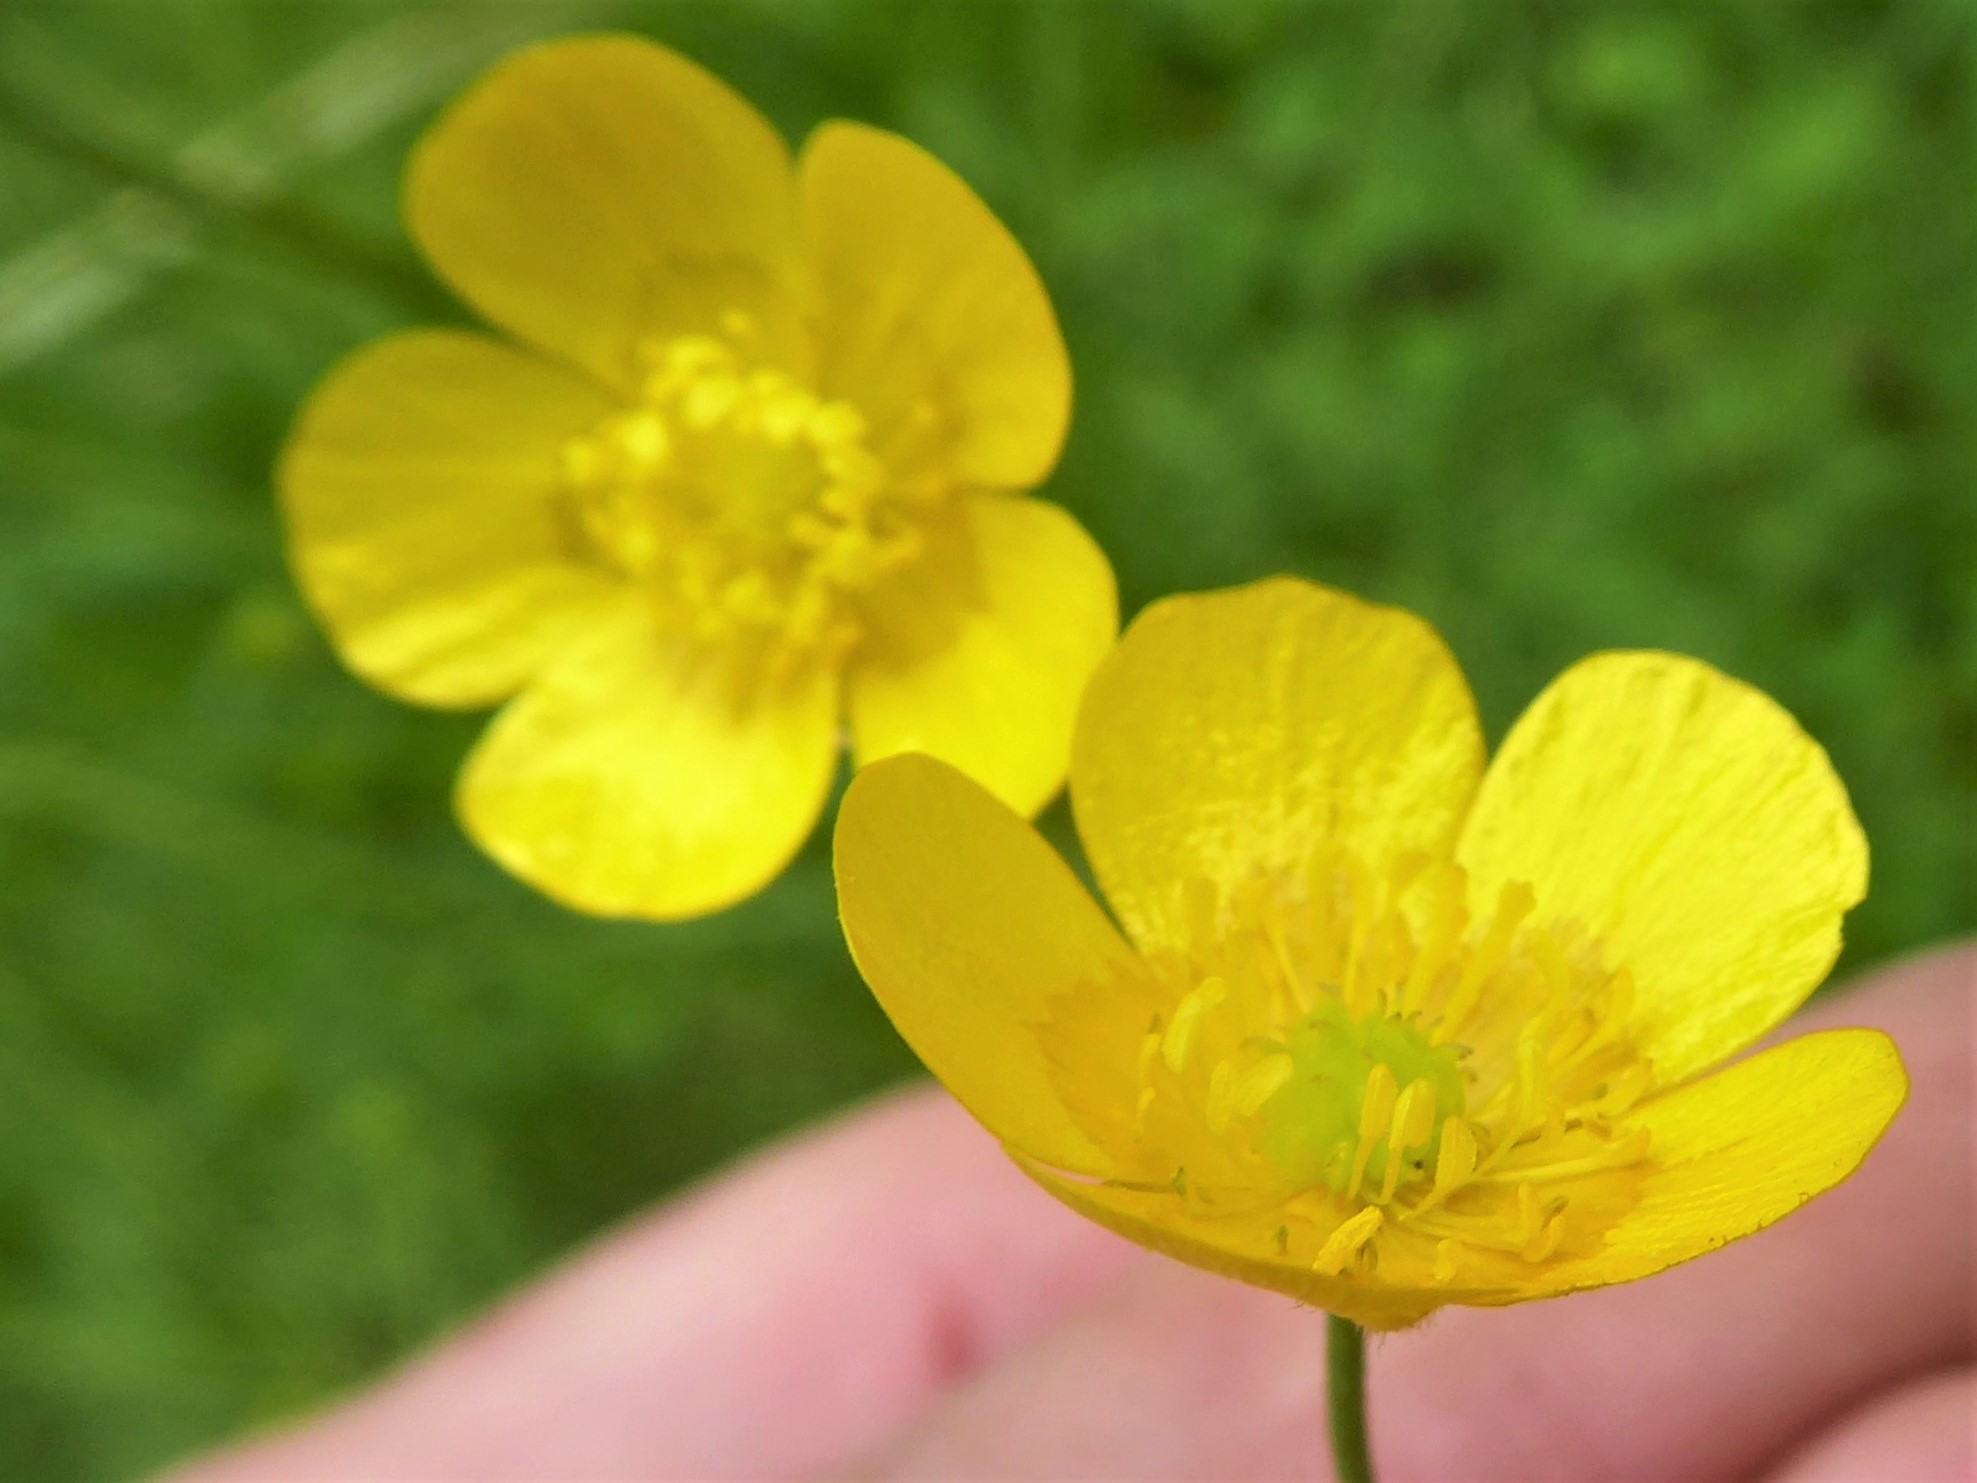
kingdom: Plantae
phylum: Tracheophyta
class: Magnoliopsida
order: Ranunculales
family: Ranunculaceae
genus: Ranunculus
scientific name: Ranunculus acris
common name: Meadow buttercup
